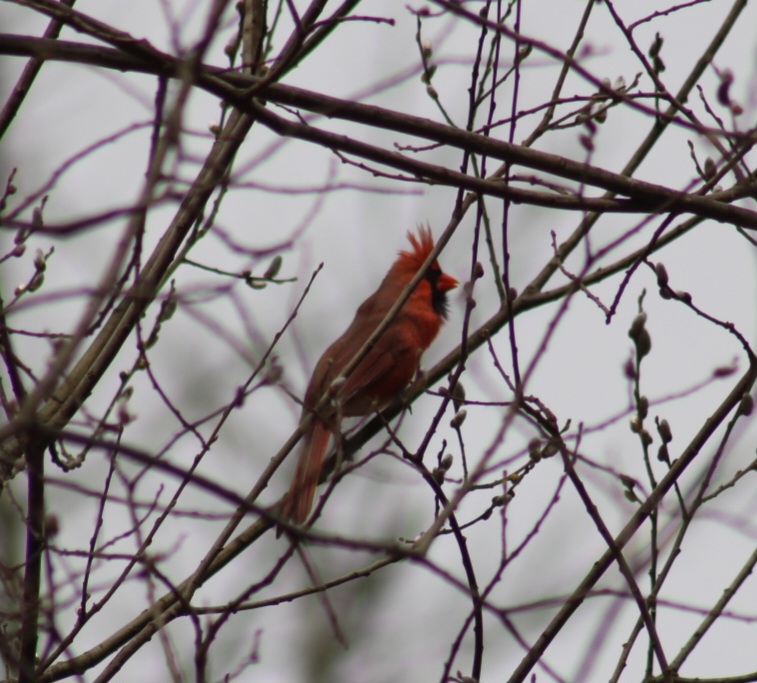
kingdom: Animalia
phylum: Chordata
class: Aves
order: Passeriformes
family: Cardinalidae
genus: Cardinalis
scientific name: Cardinalis cardinalis
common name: Northern cardinal
